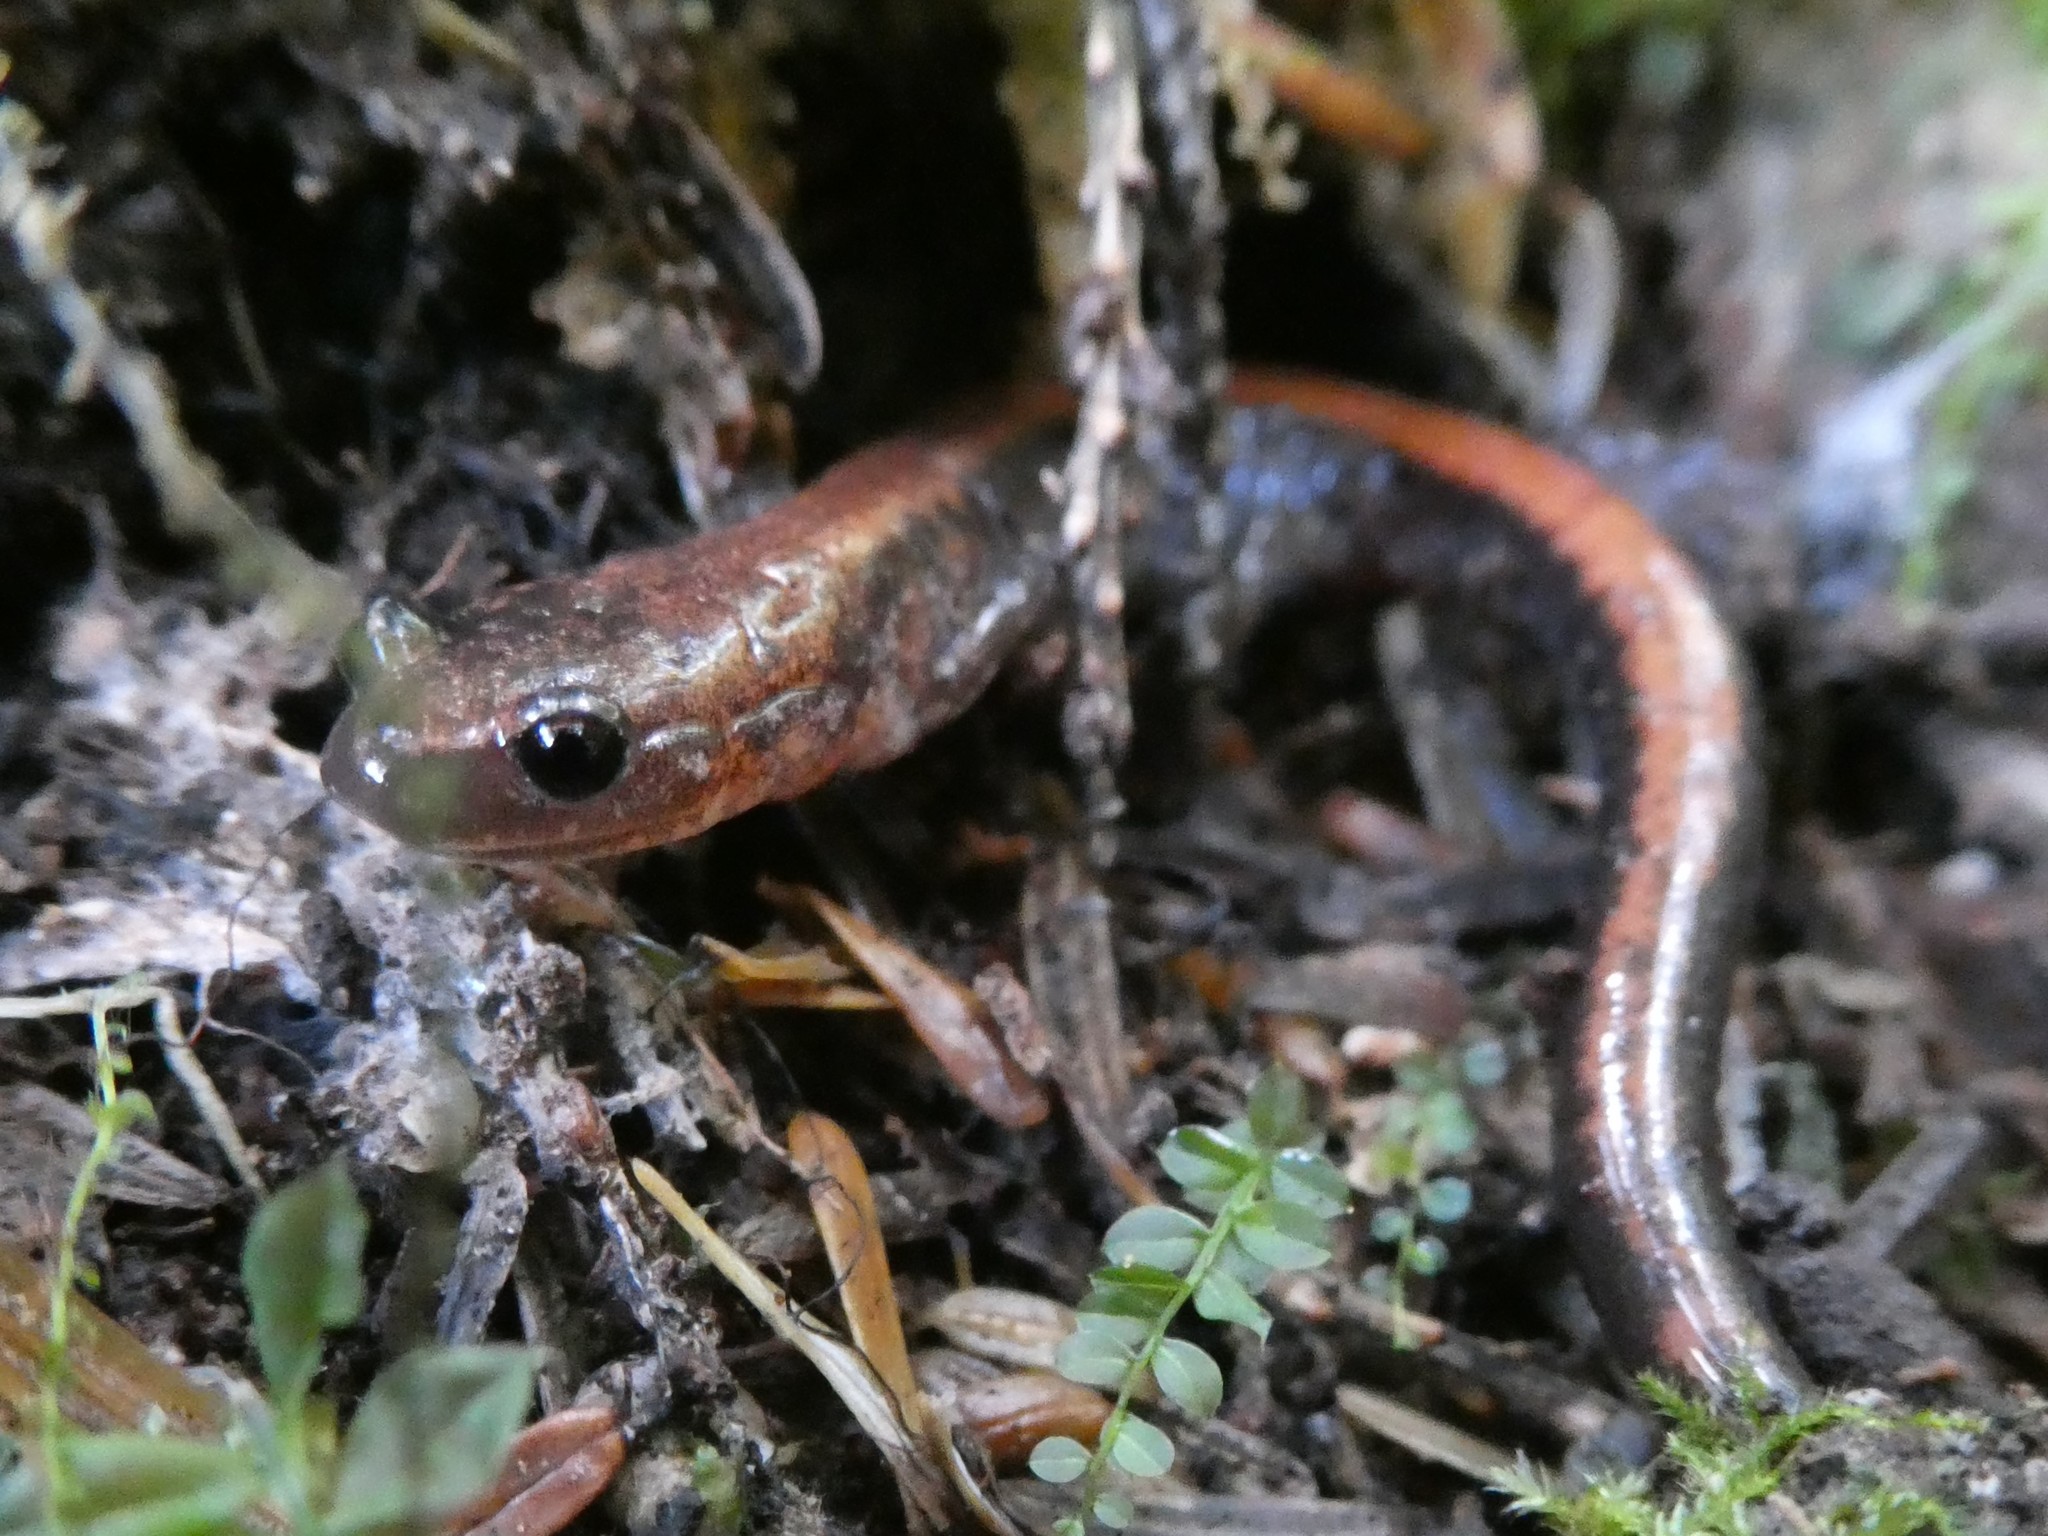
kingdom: Animalia
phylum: Chordata
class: Amphibia
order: Caudata
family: Plethodontidae
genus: Plethodon
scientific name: Plethodon cinereus
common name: Redback salamander
